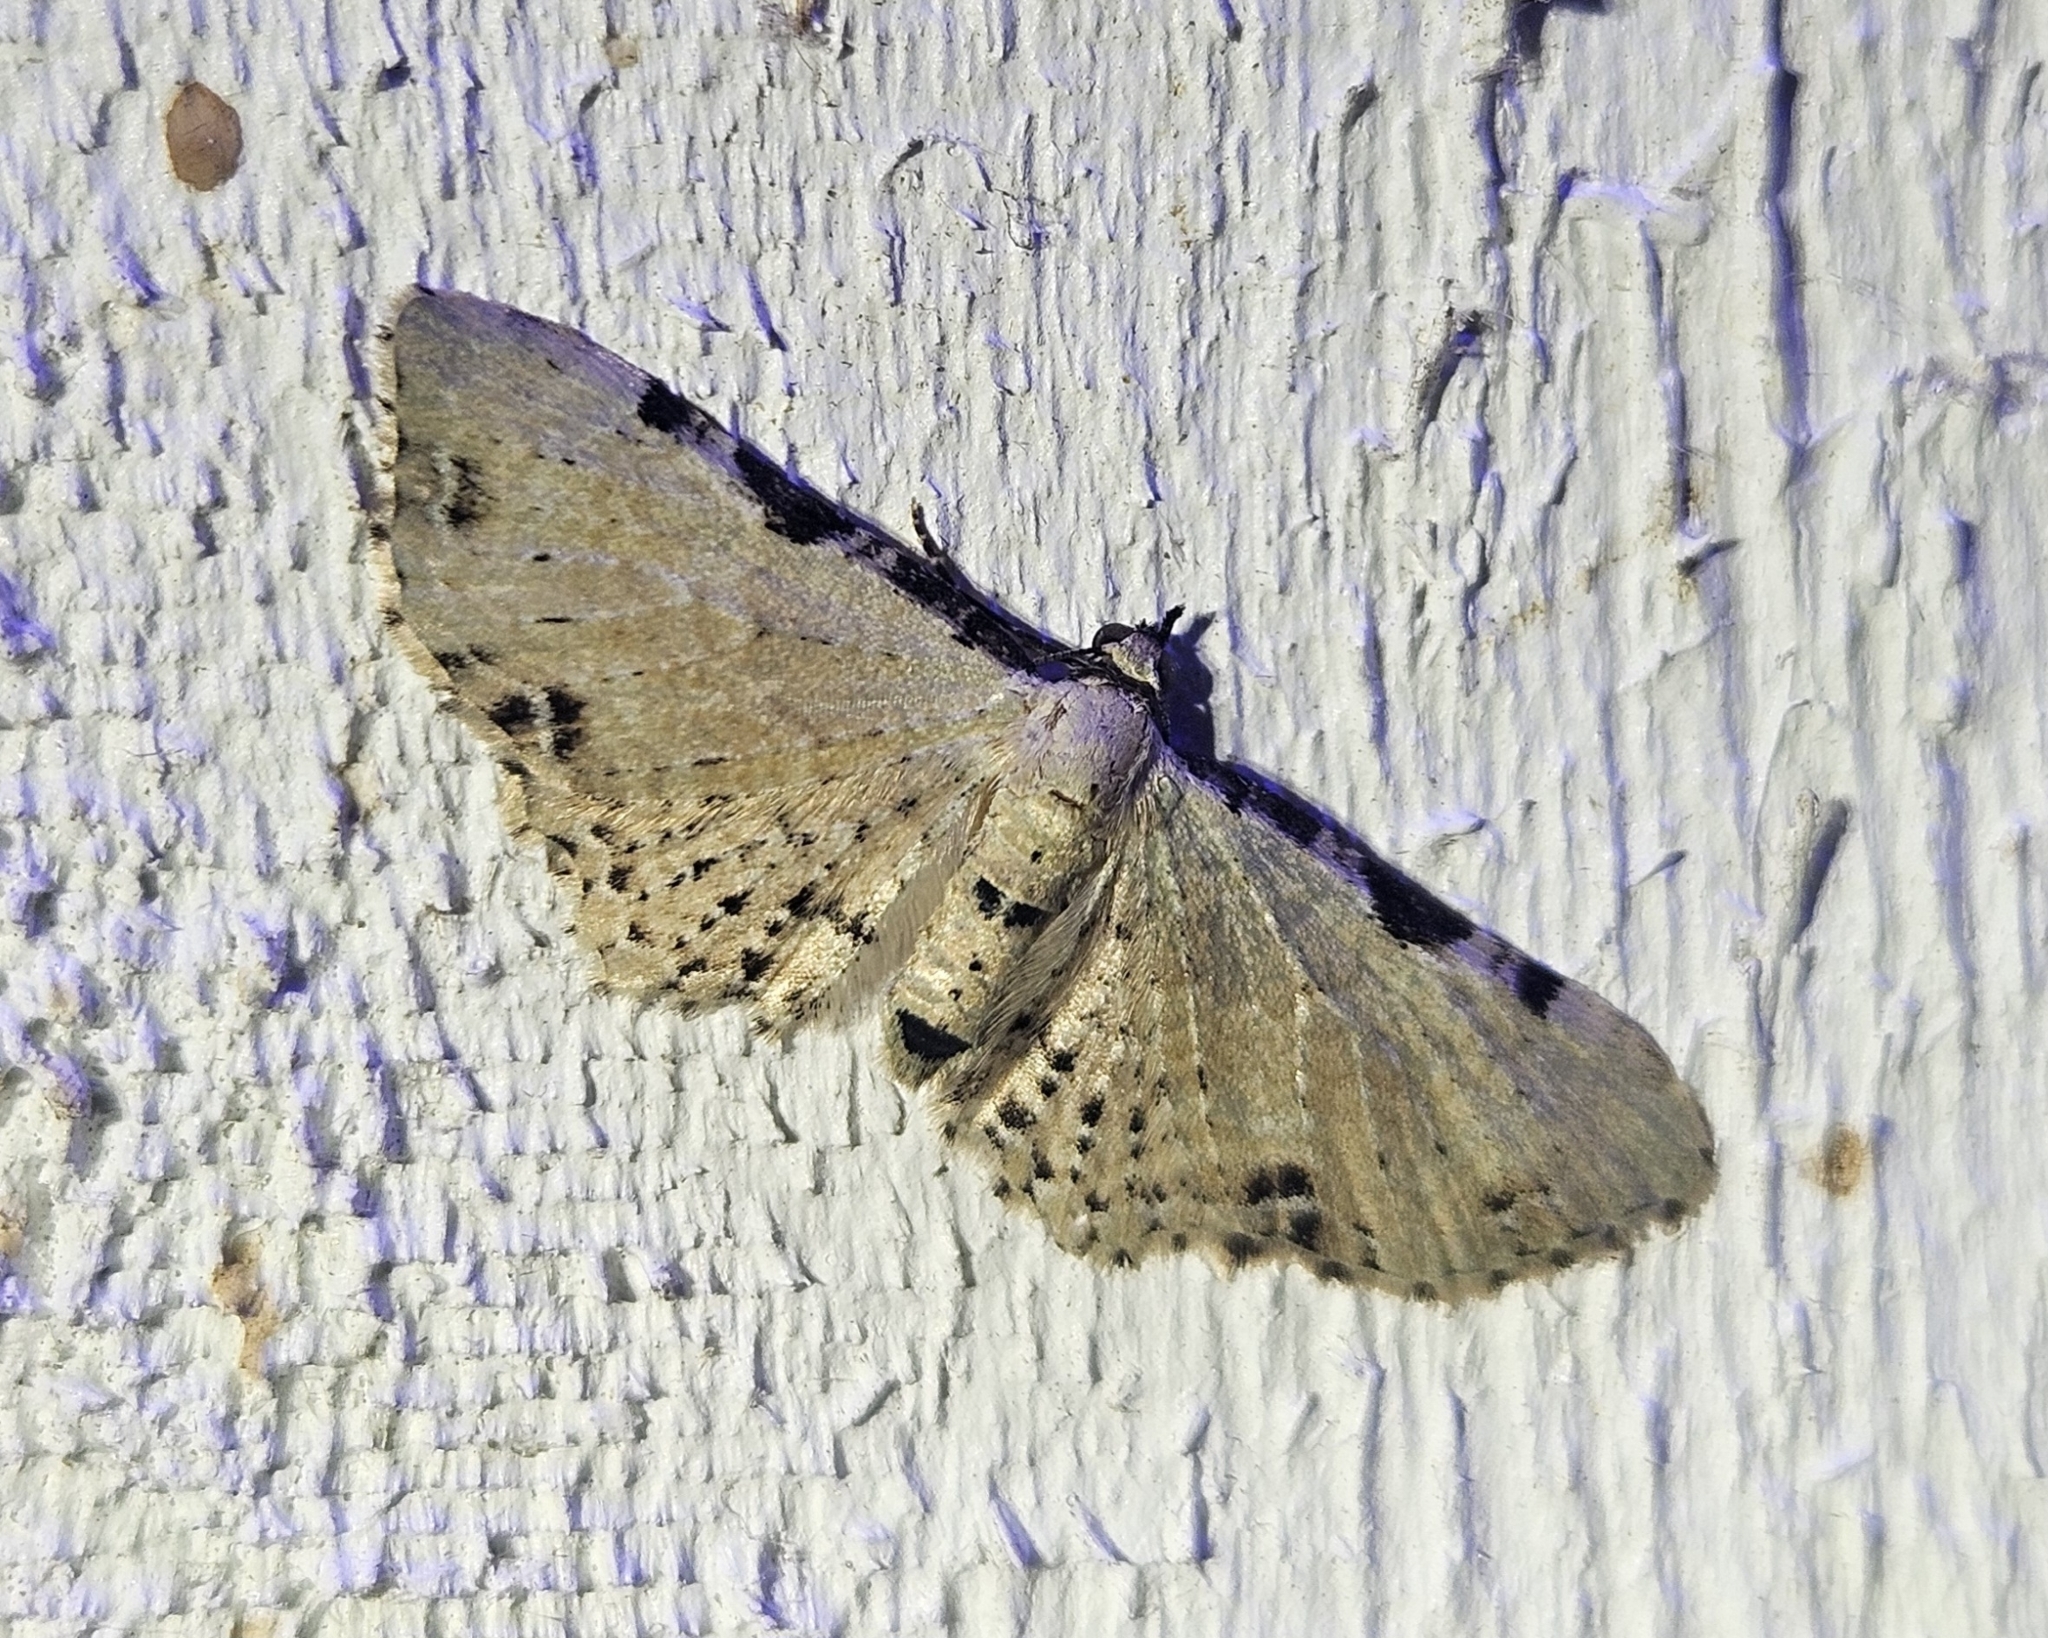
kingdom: Animalia
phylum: Arthropoda
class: Insecta
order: Lepidoptera
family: Geometridae
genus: Pasiphila
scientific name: Pasiphila fumipalpata
